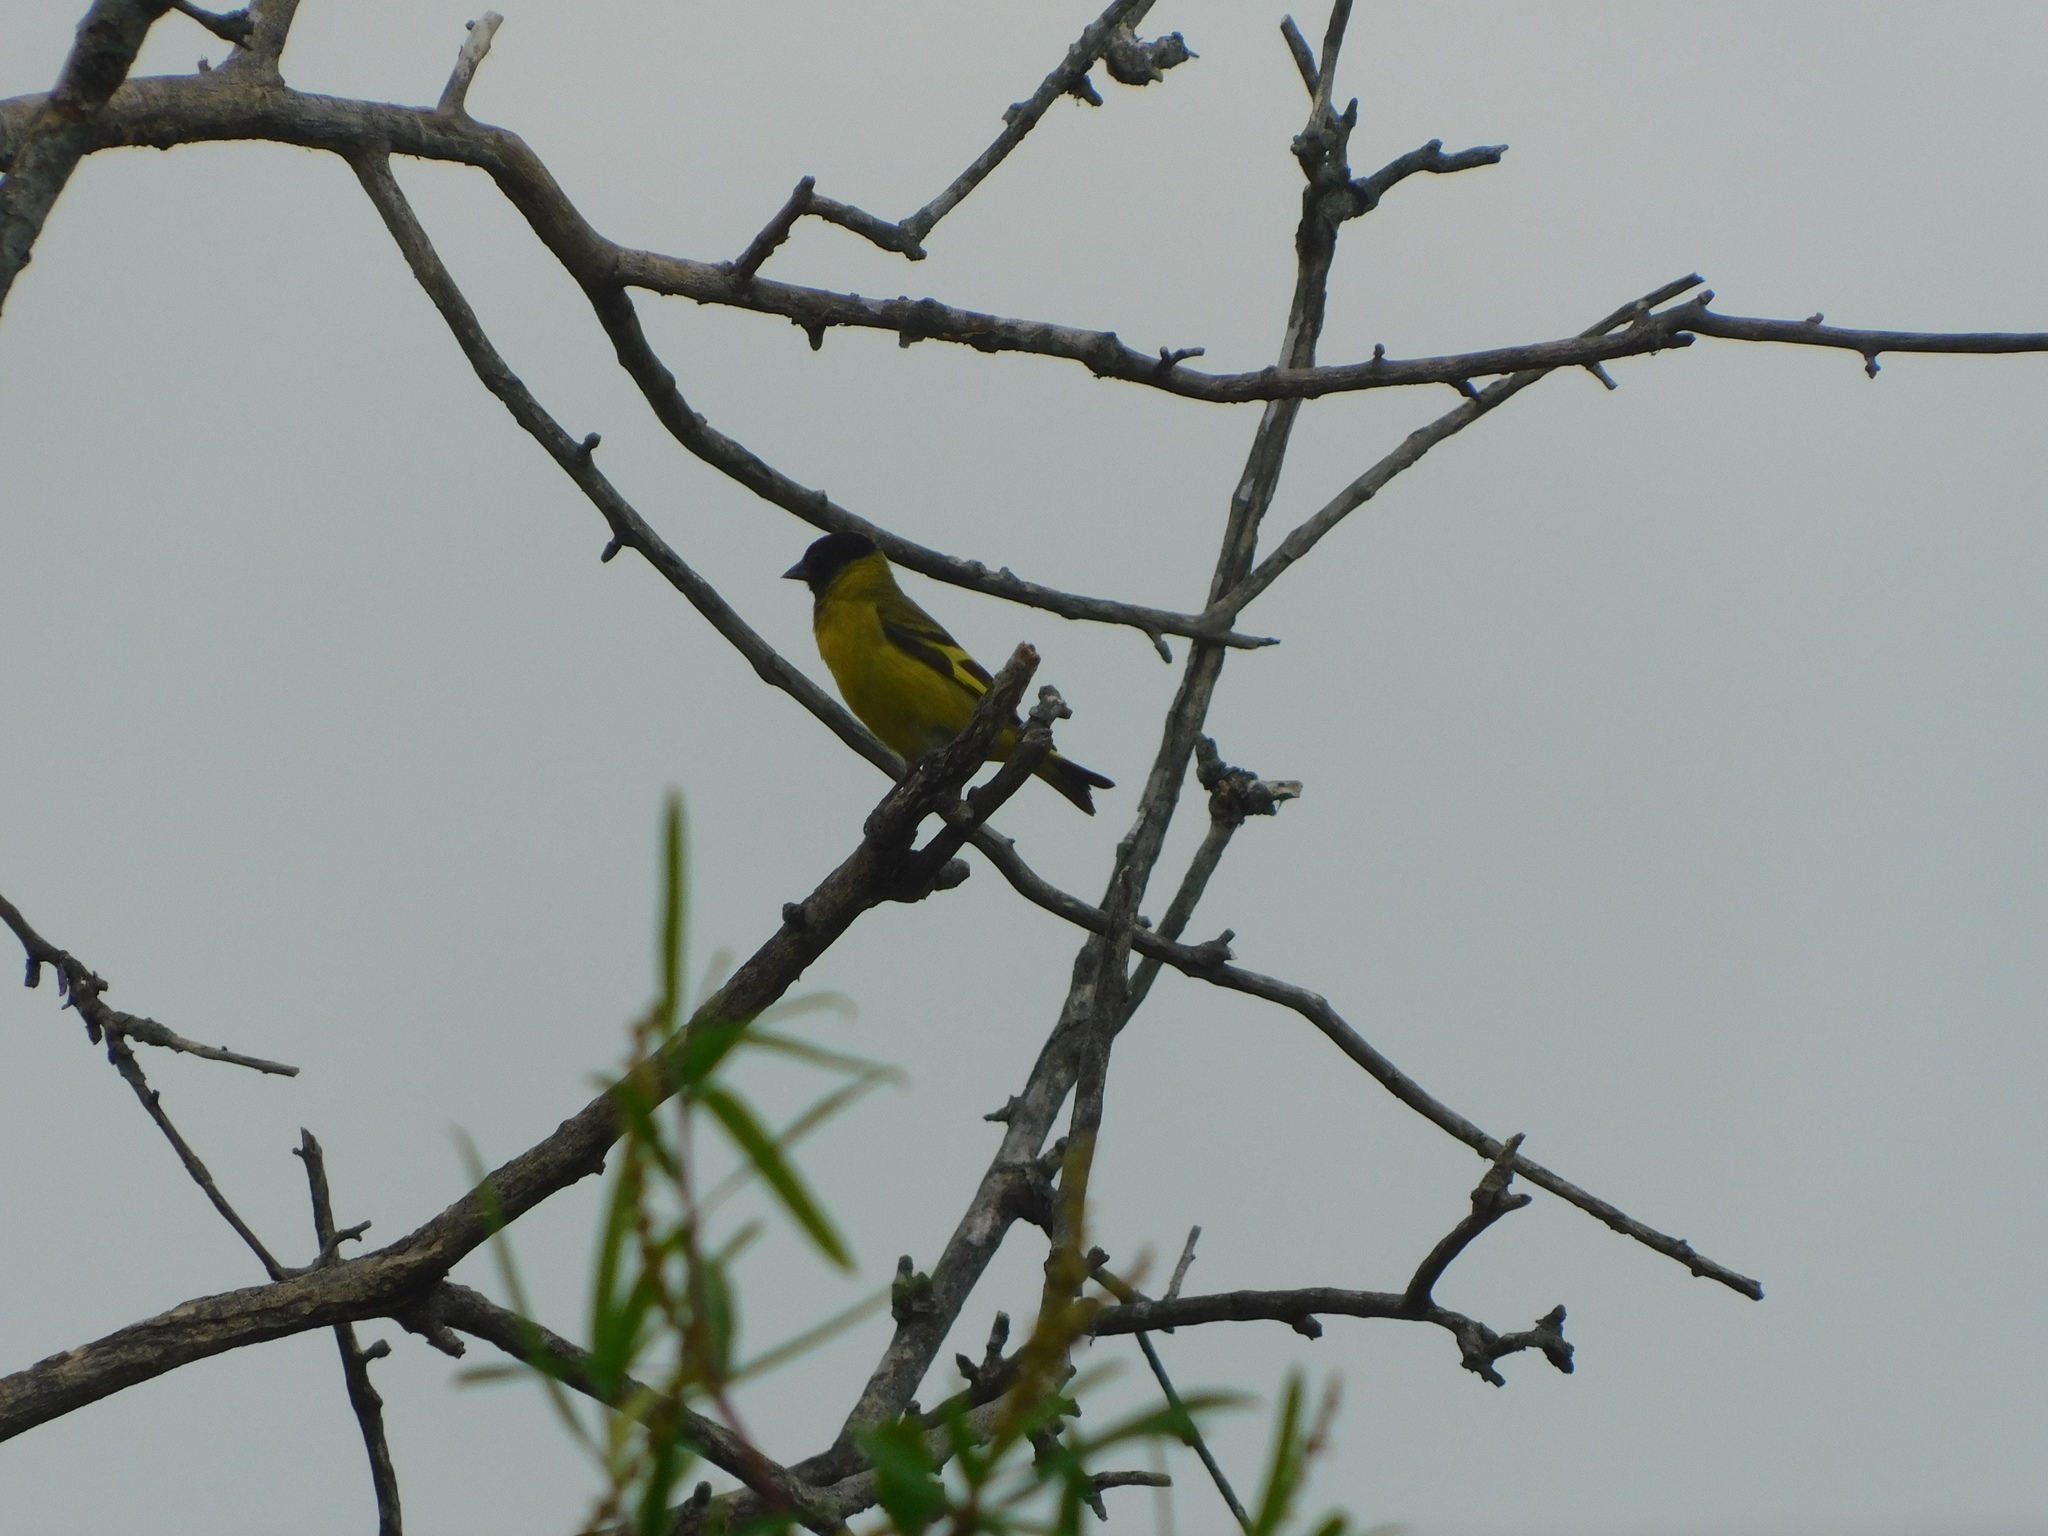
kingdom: Animalia
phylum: Chordata
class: Aves
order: Passeriformes
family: Fringillidae
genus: Spinus
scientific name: Spinus magellanicus
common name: Hooded siskin
